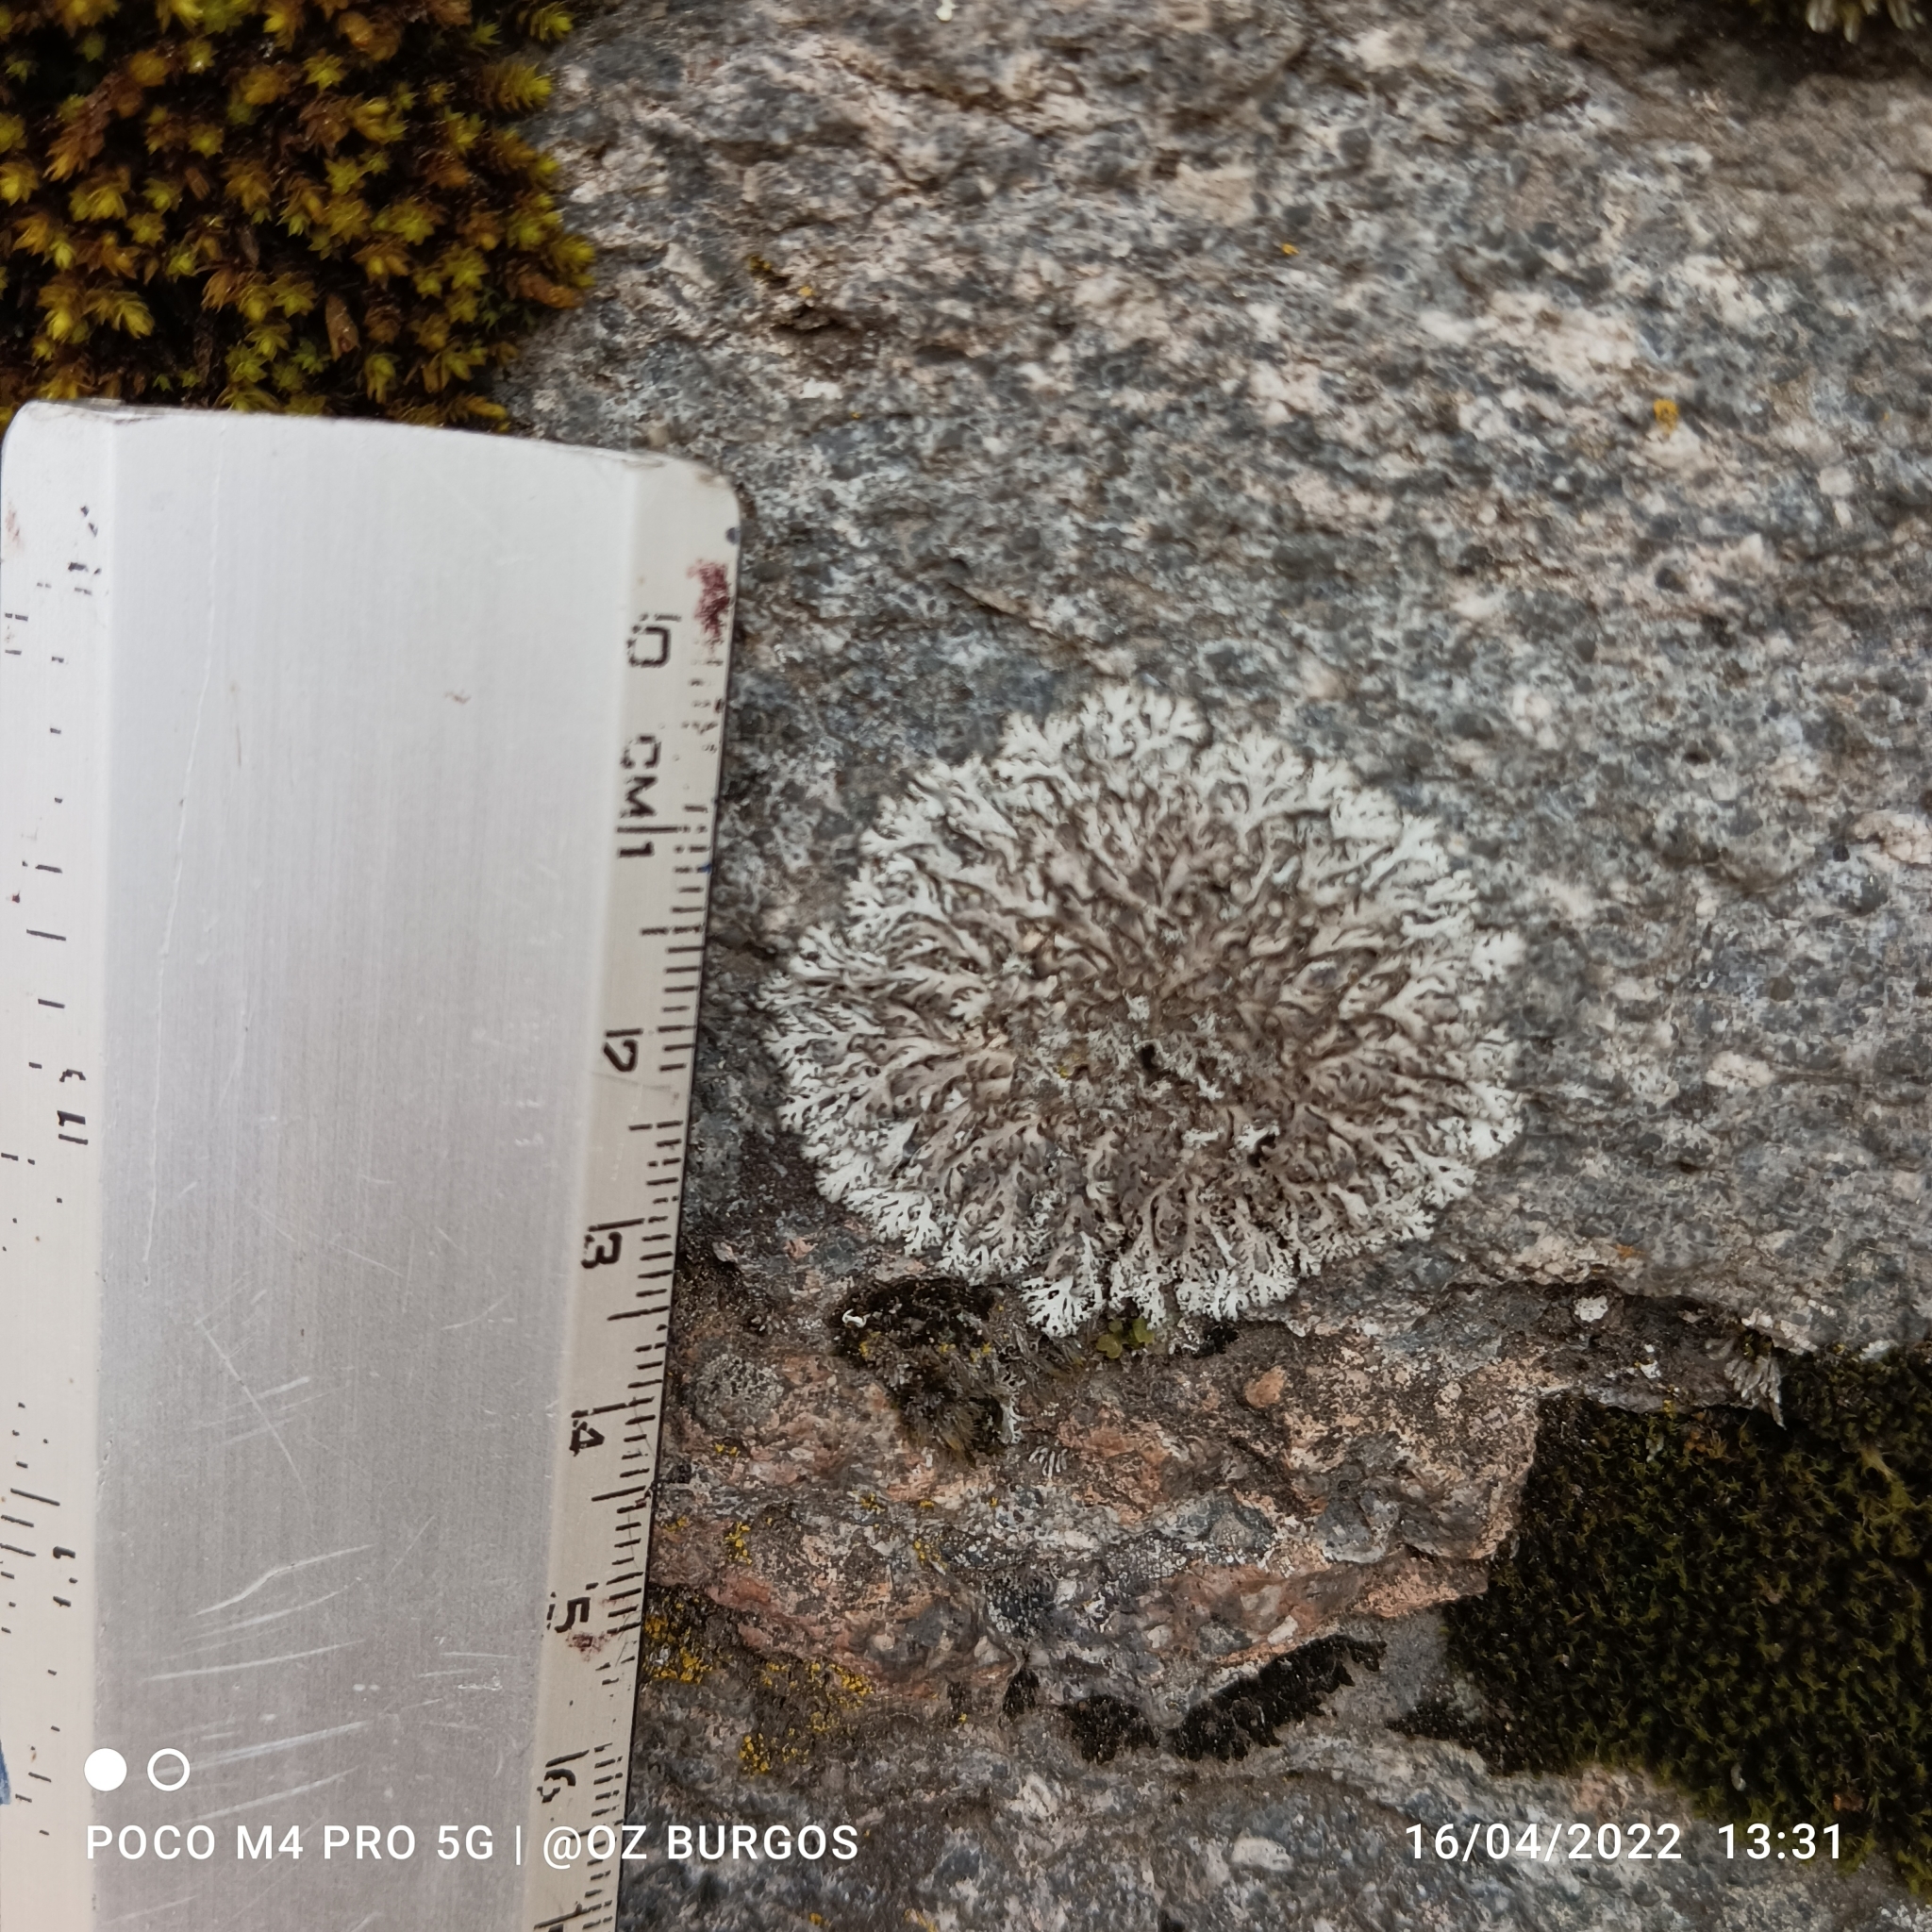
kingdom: Fungi
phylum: Ascomycota
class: Lecanoromycetes
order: Caliciales
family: Physciaceae
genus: Physcia
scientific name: Physcia stellaris
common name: Star rosette lichen
